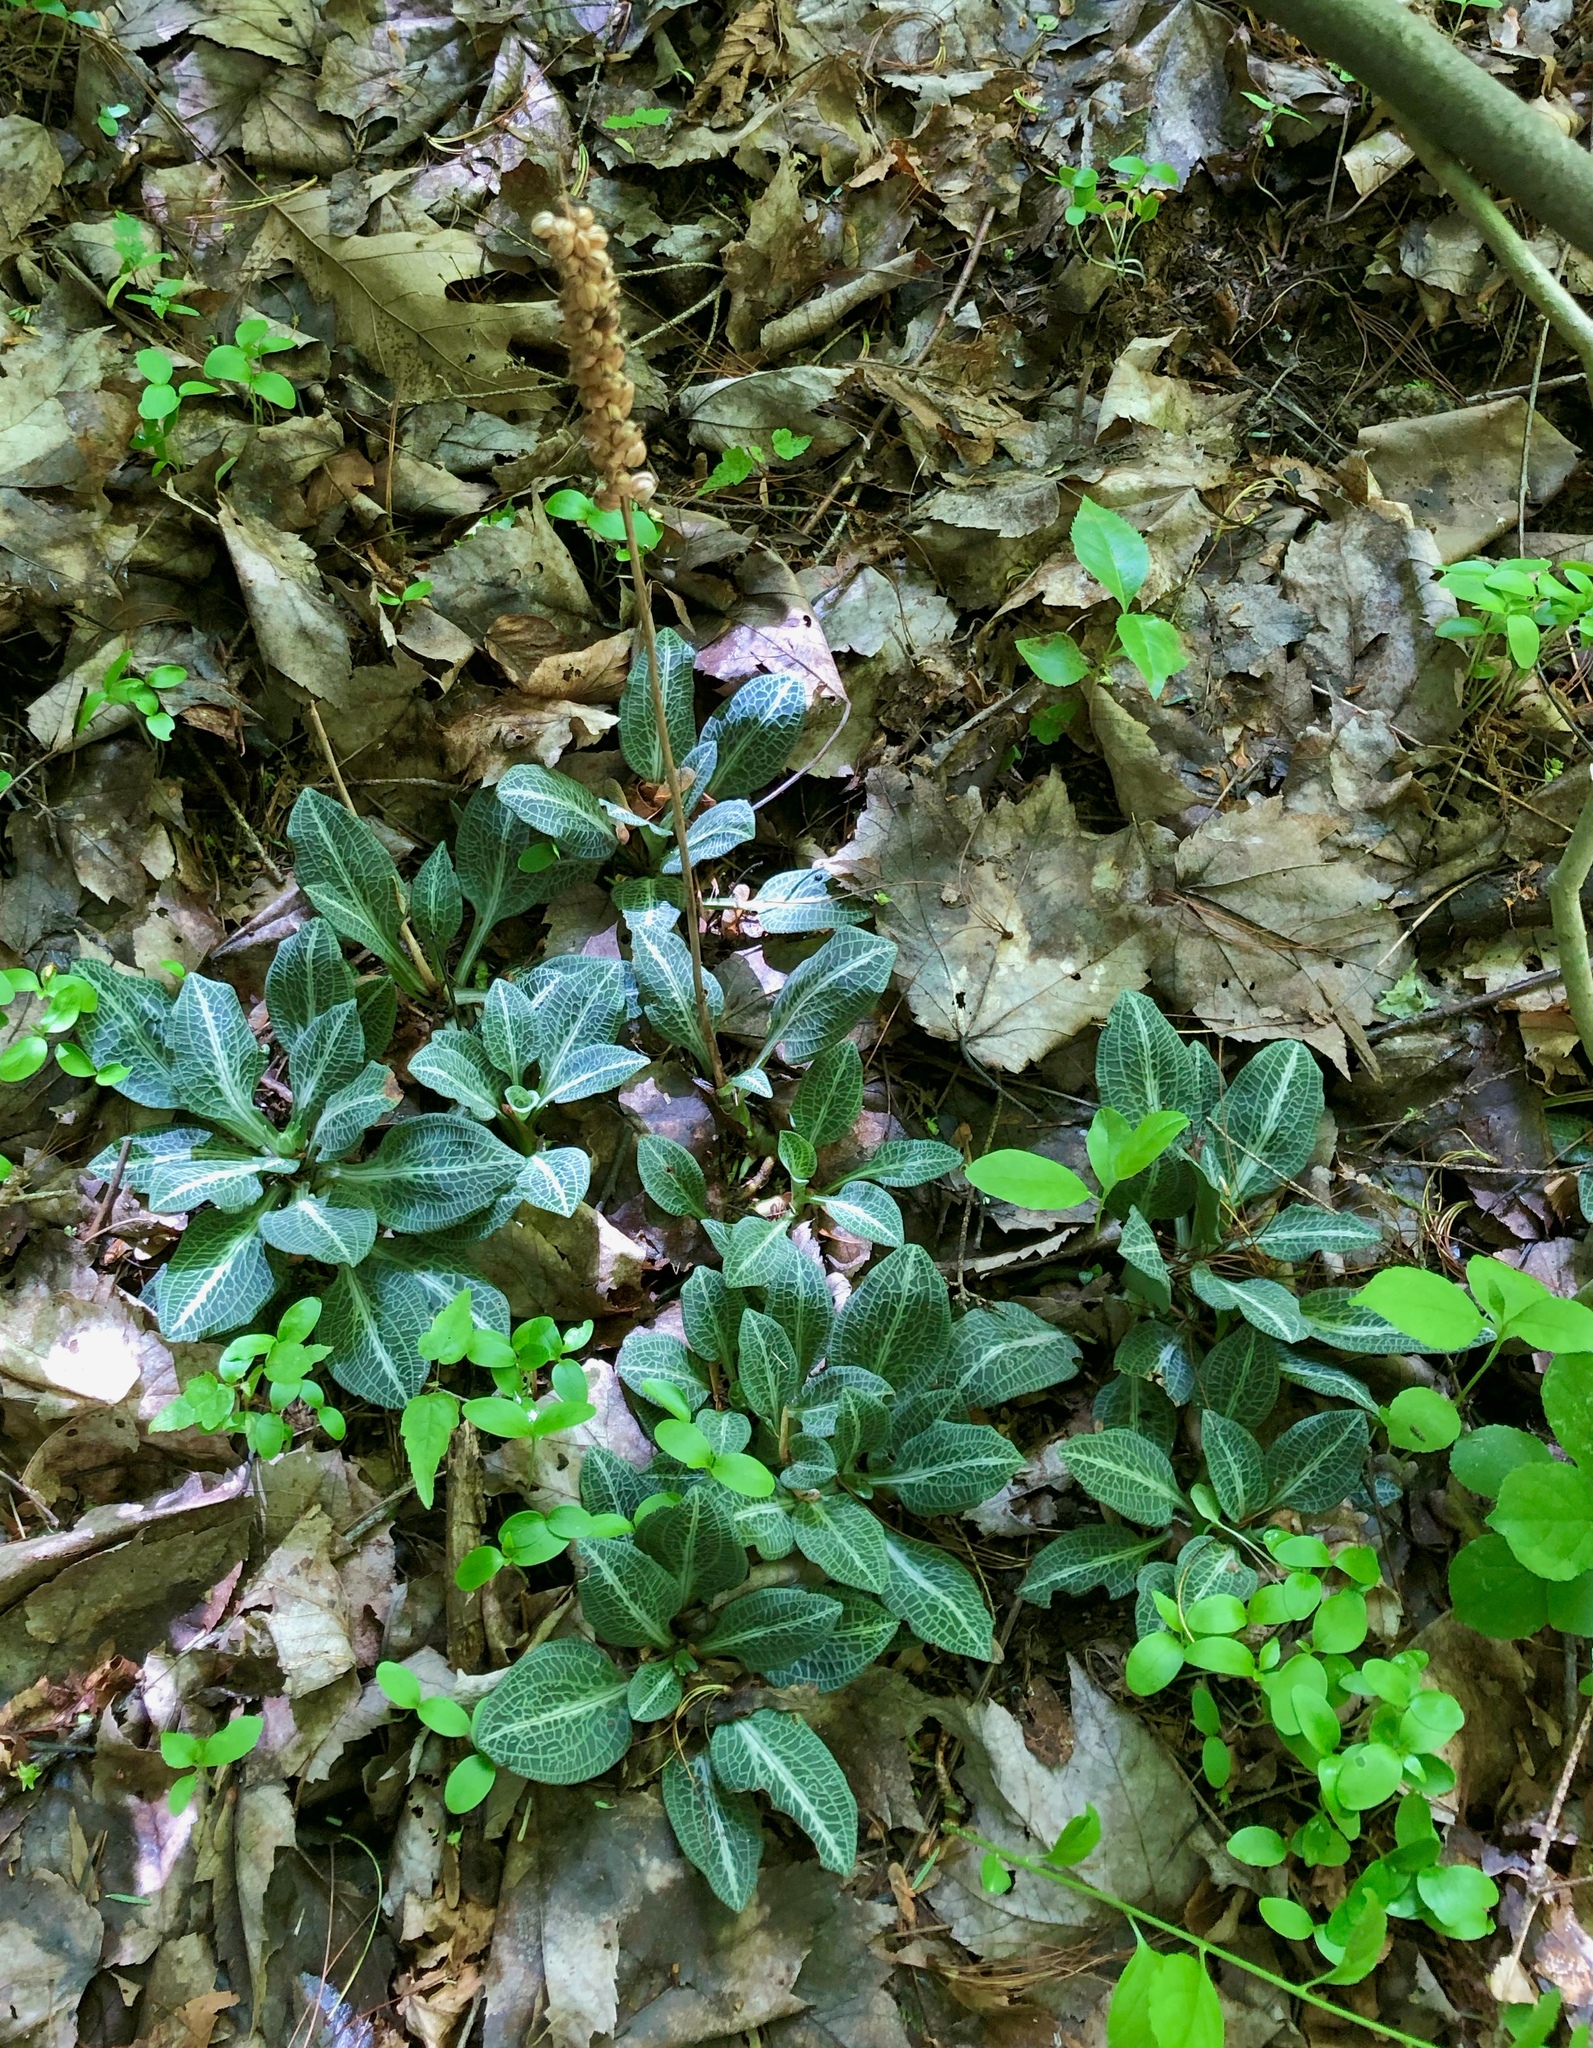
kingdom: Plantae
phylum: Tracheophyta
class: Liliopsida
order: Asparagales
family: Orchidaceae
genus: Goodyera
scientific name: Goodyera pubescens
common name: Downy rattlesnake-plantain
